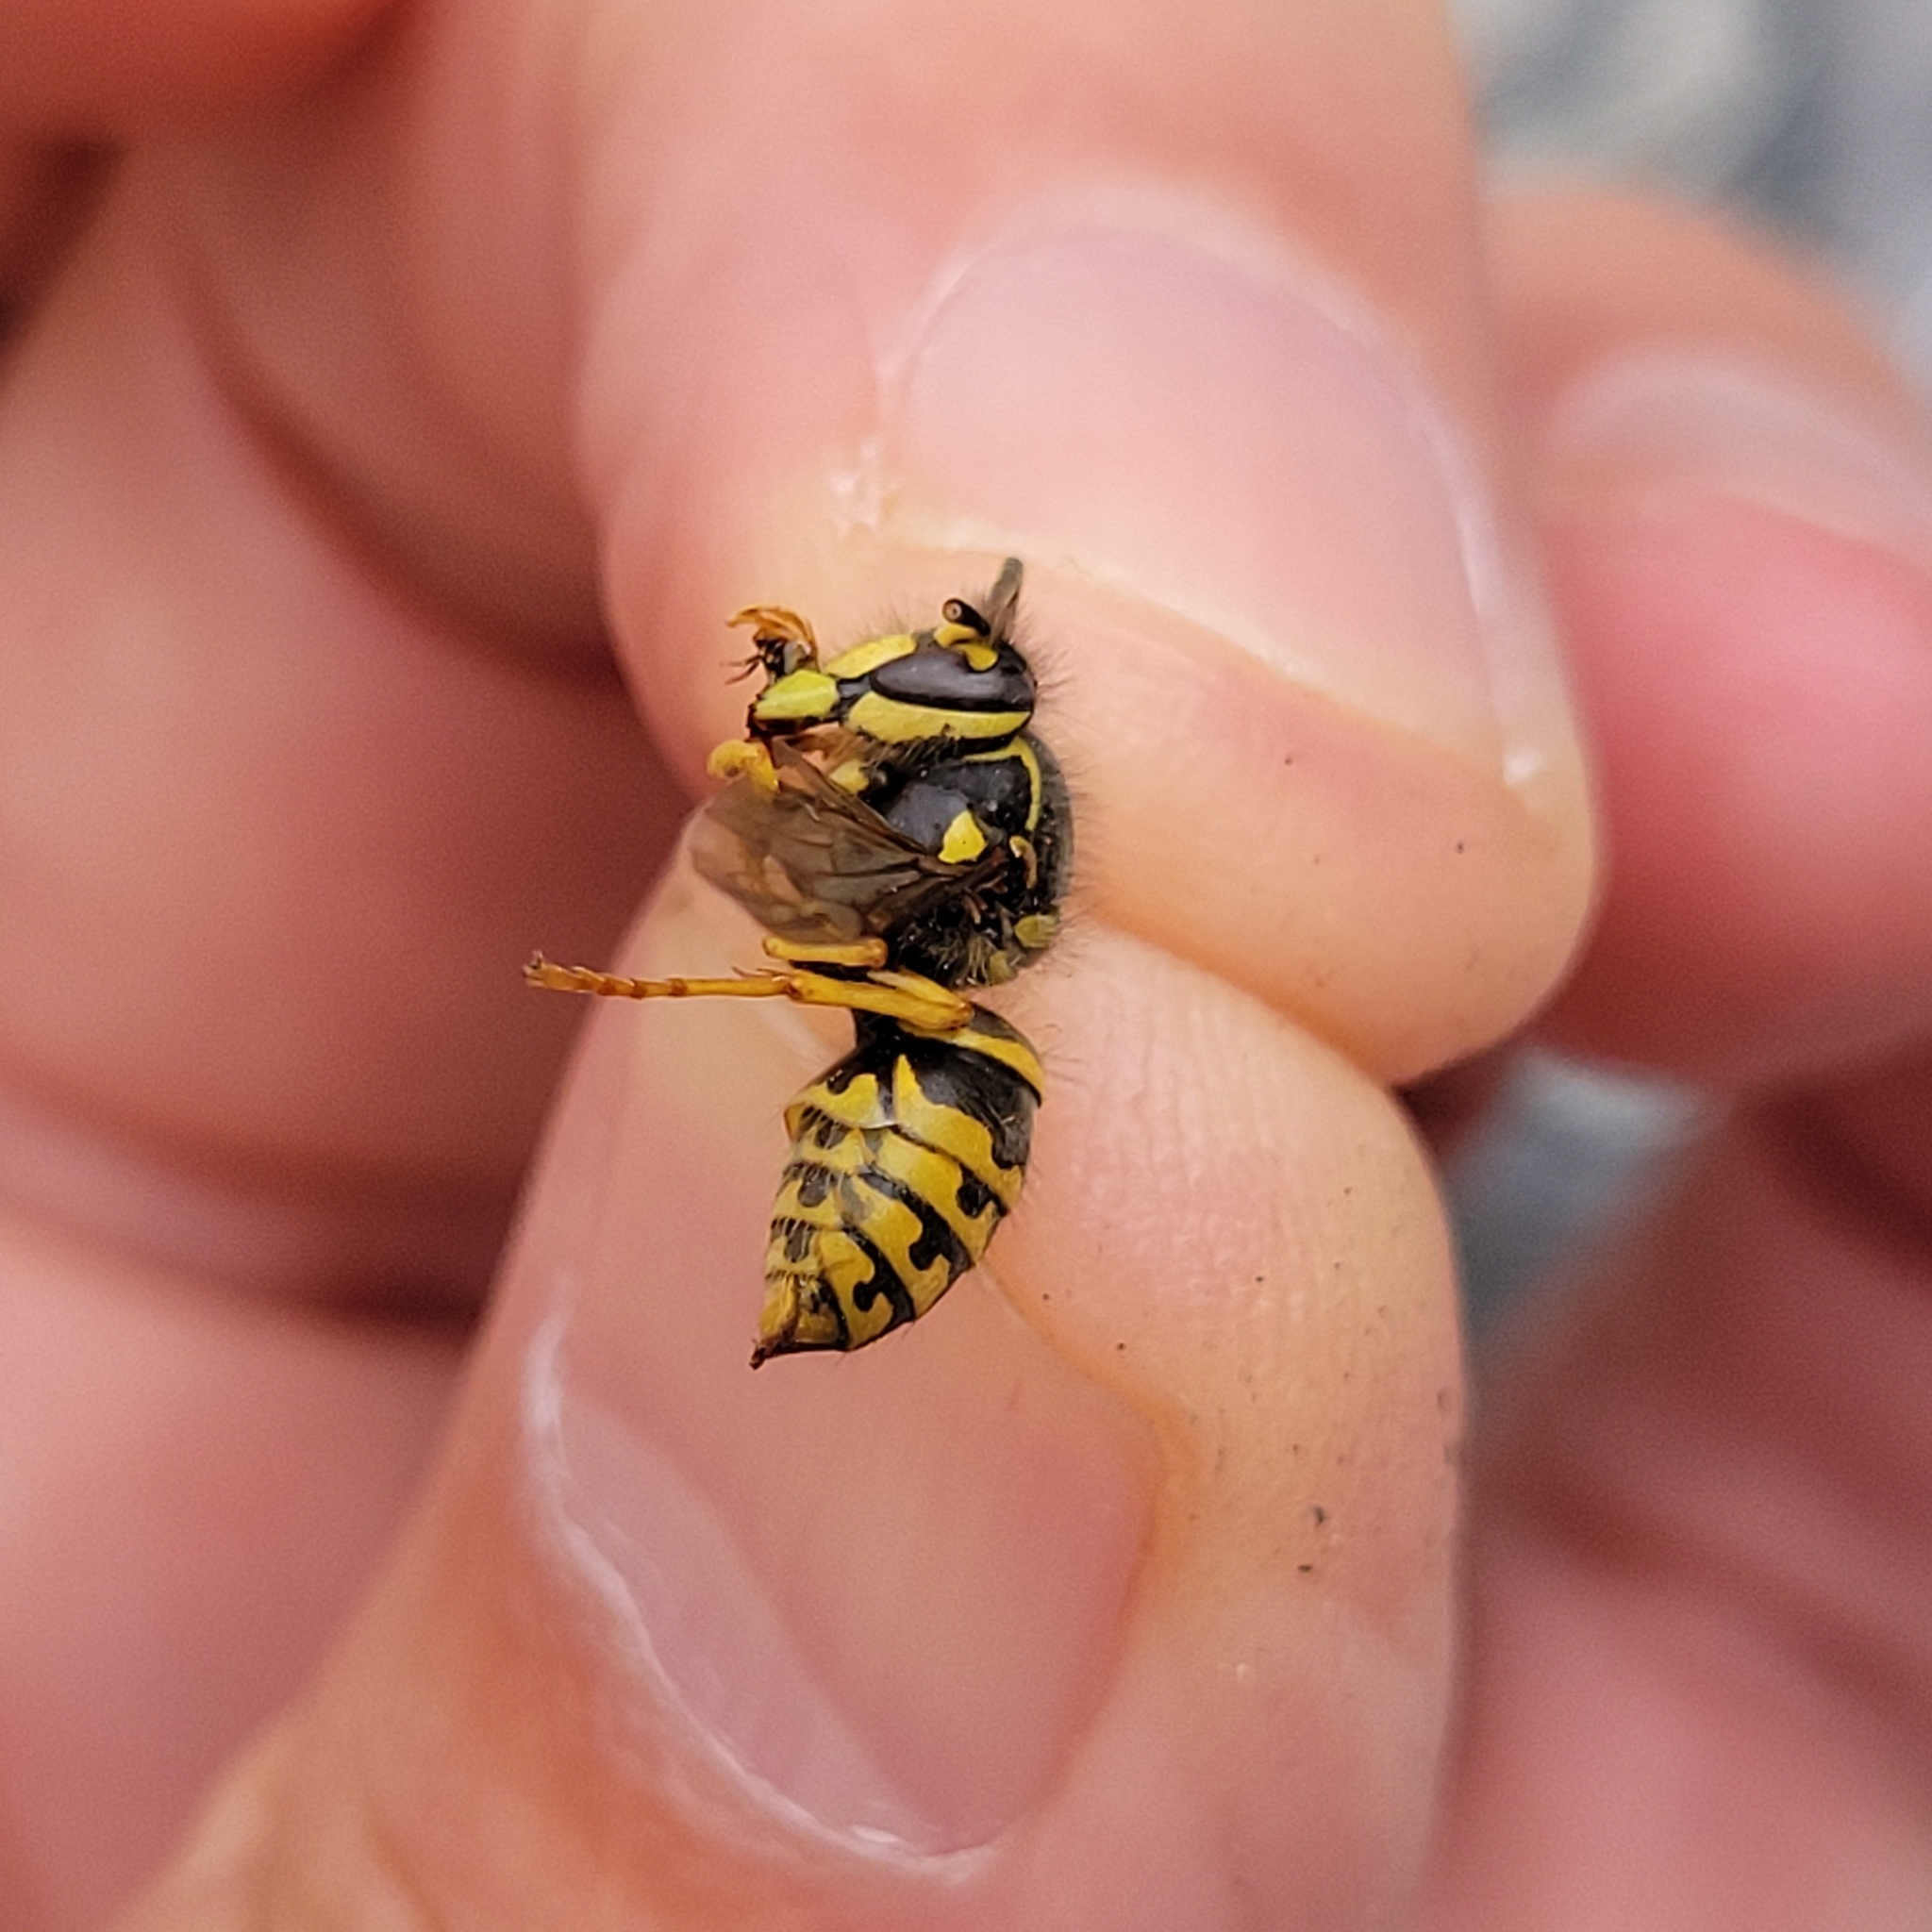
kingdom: Animalia
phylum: Arthropoda
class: Insecta
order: Hymenoptera
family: Vespidae
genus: Dolichovespula
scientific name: Dolichovespula arenaria
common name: Aerial yellowjacket
